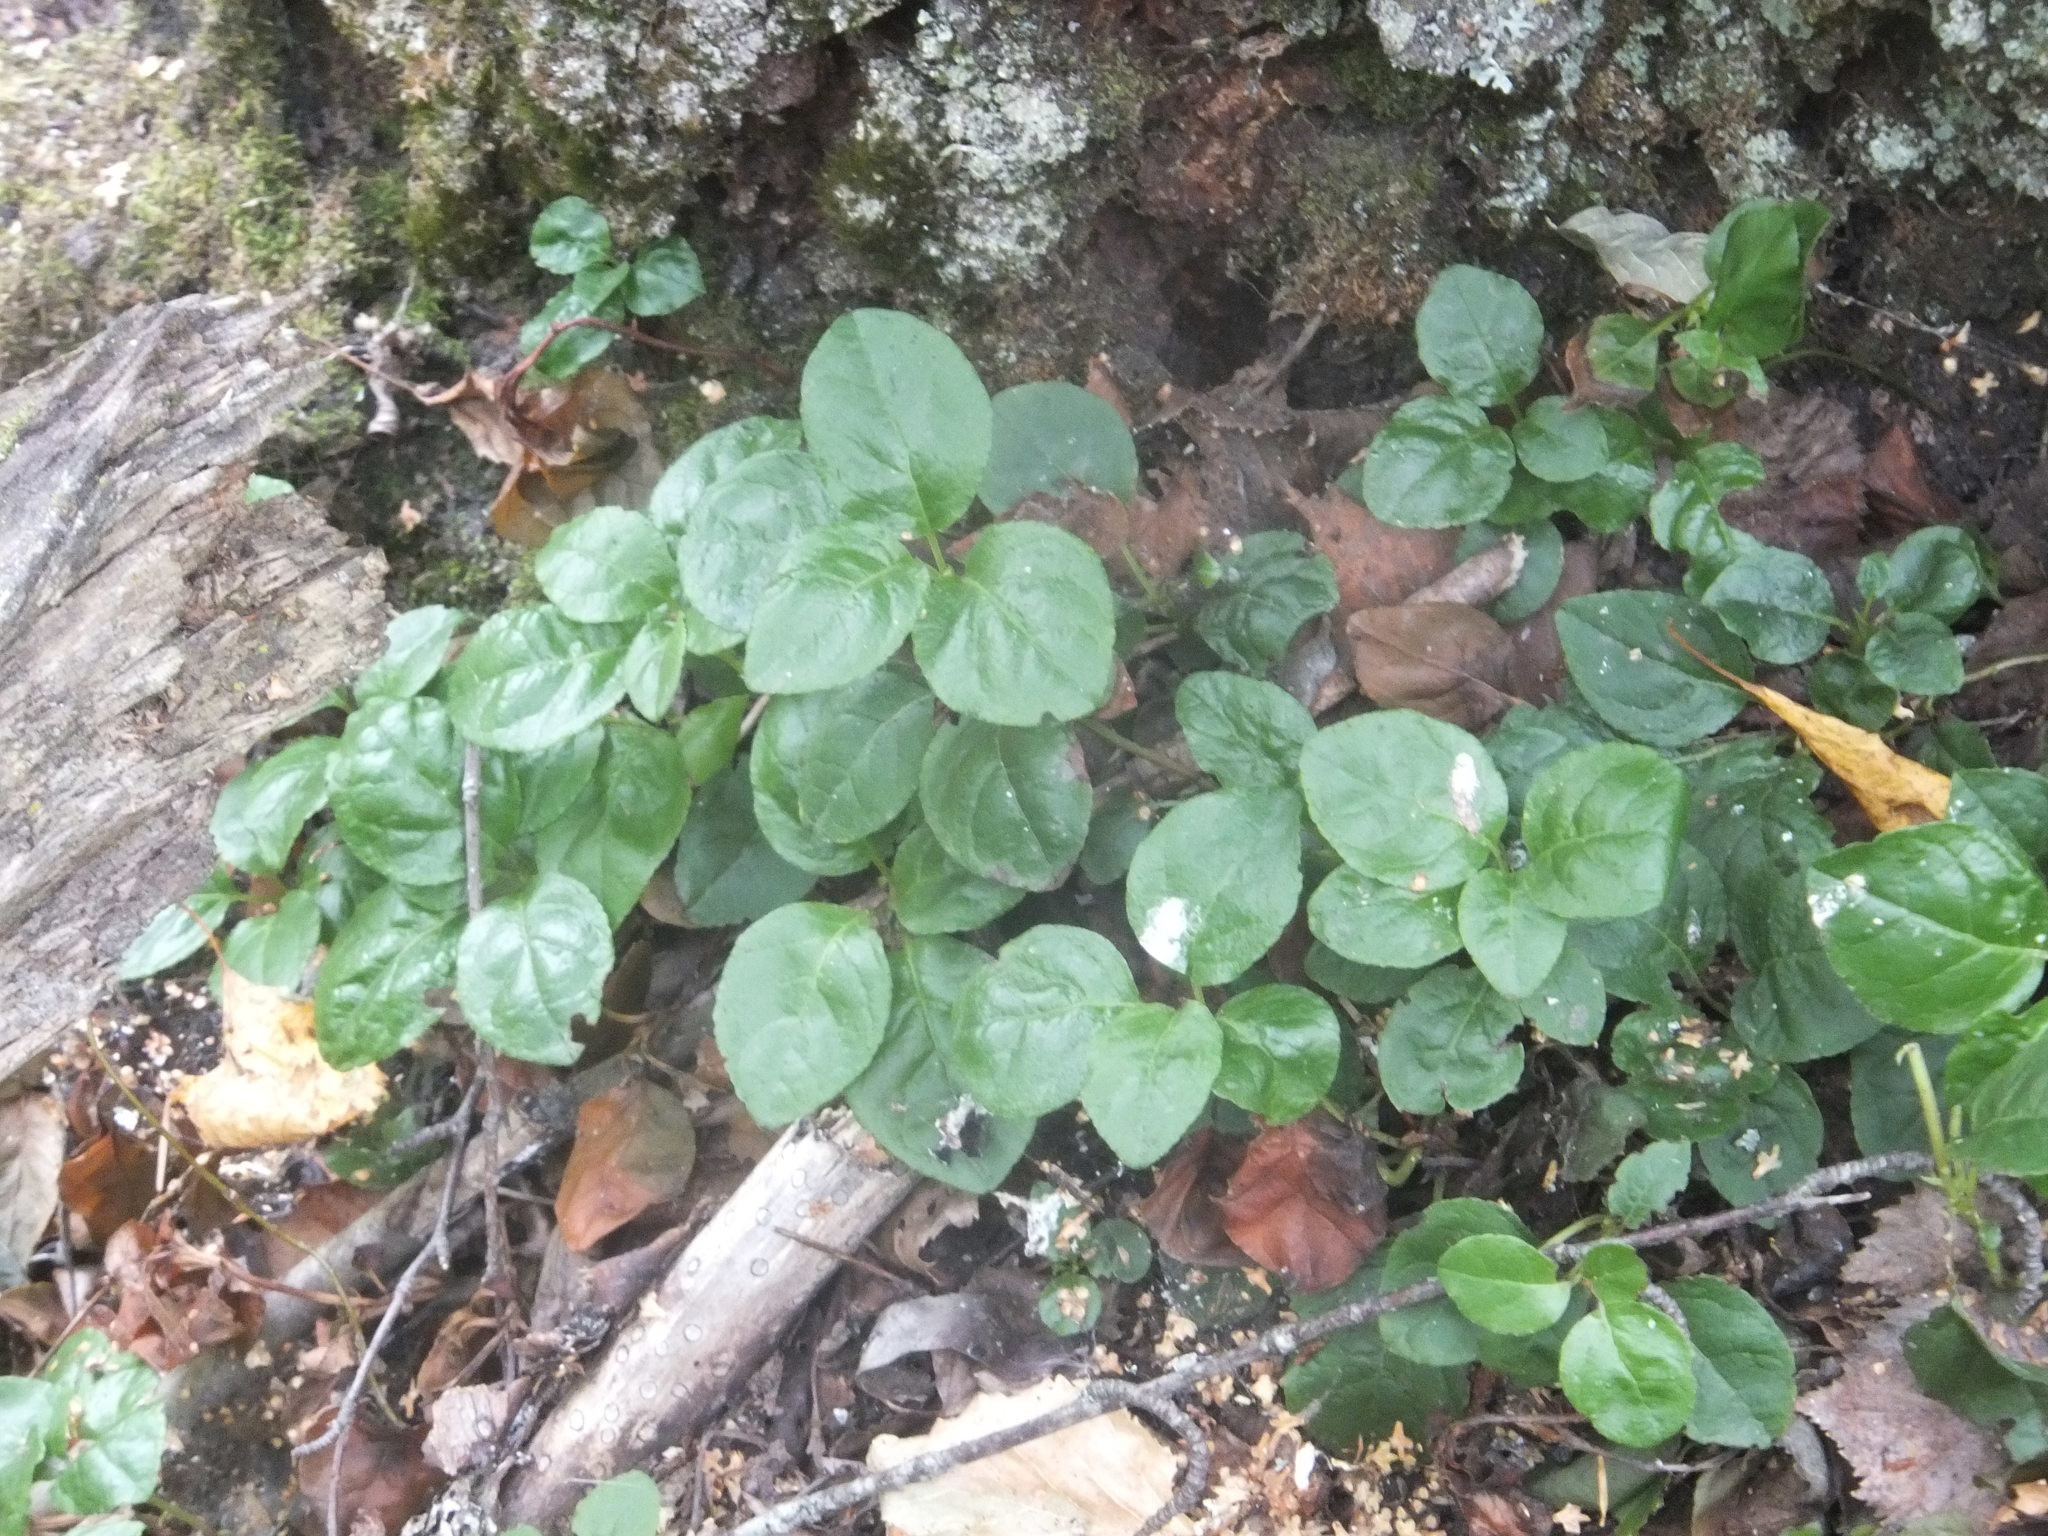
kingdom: Plantae
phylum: Tracheophyta
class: Magnoliopsida
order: Ericales
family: Ericaceae
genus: Orthilia
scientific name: Orthilia secunda
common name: One-sided orthilia
